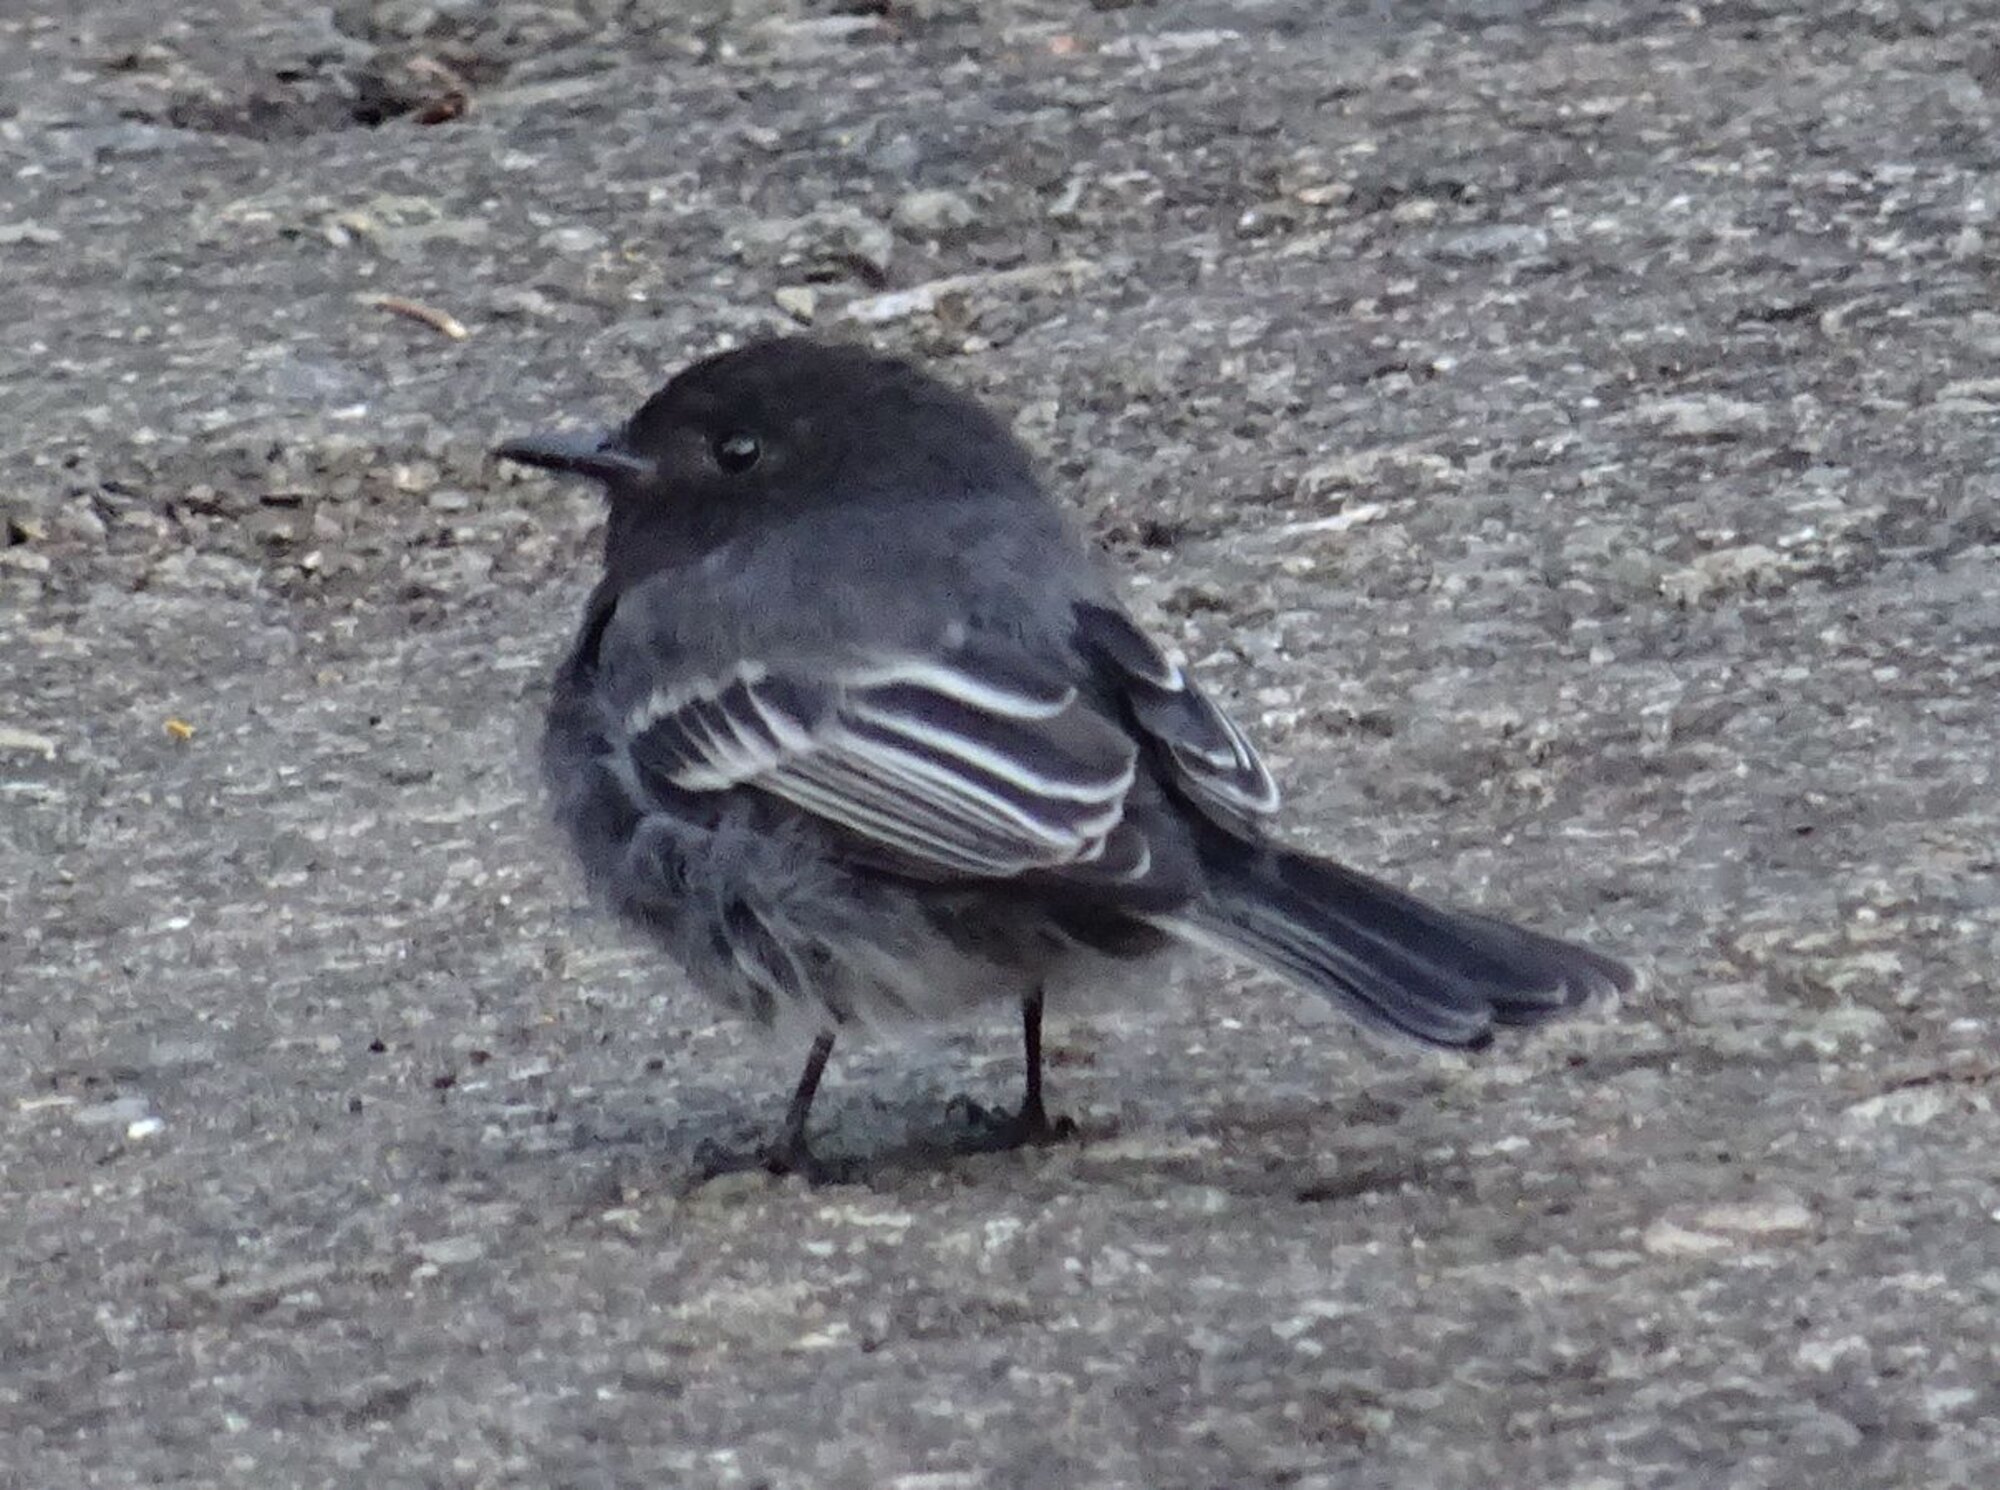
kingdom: Animalia
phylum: Chordata
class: Aves
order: Passeriformes
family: Tyrannidae
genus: Sayornis
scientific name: Sayornis nigricans
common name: Black phoebe
